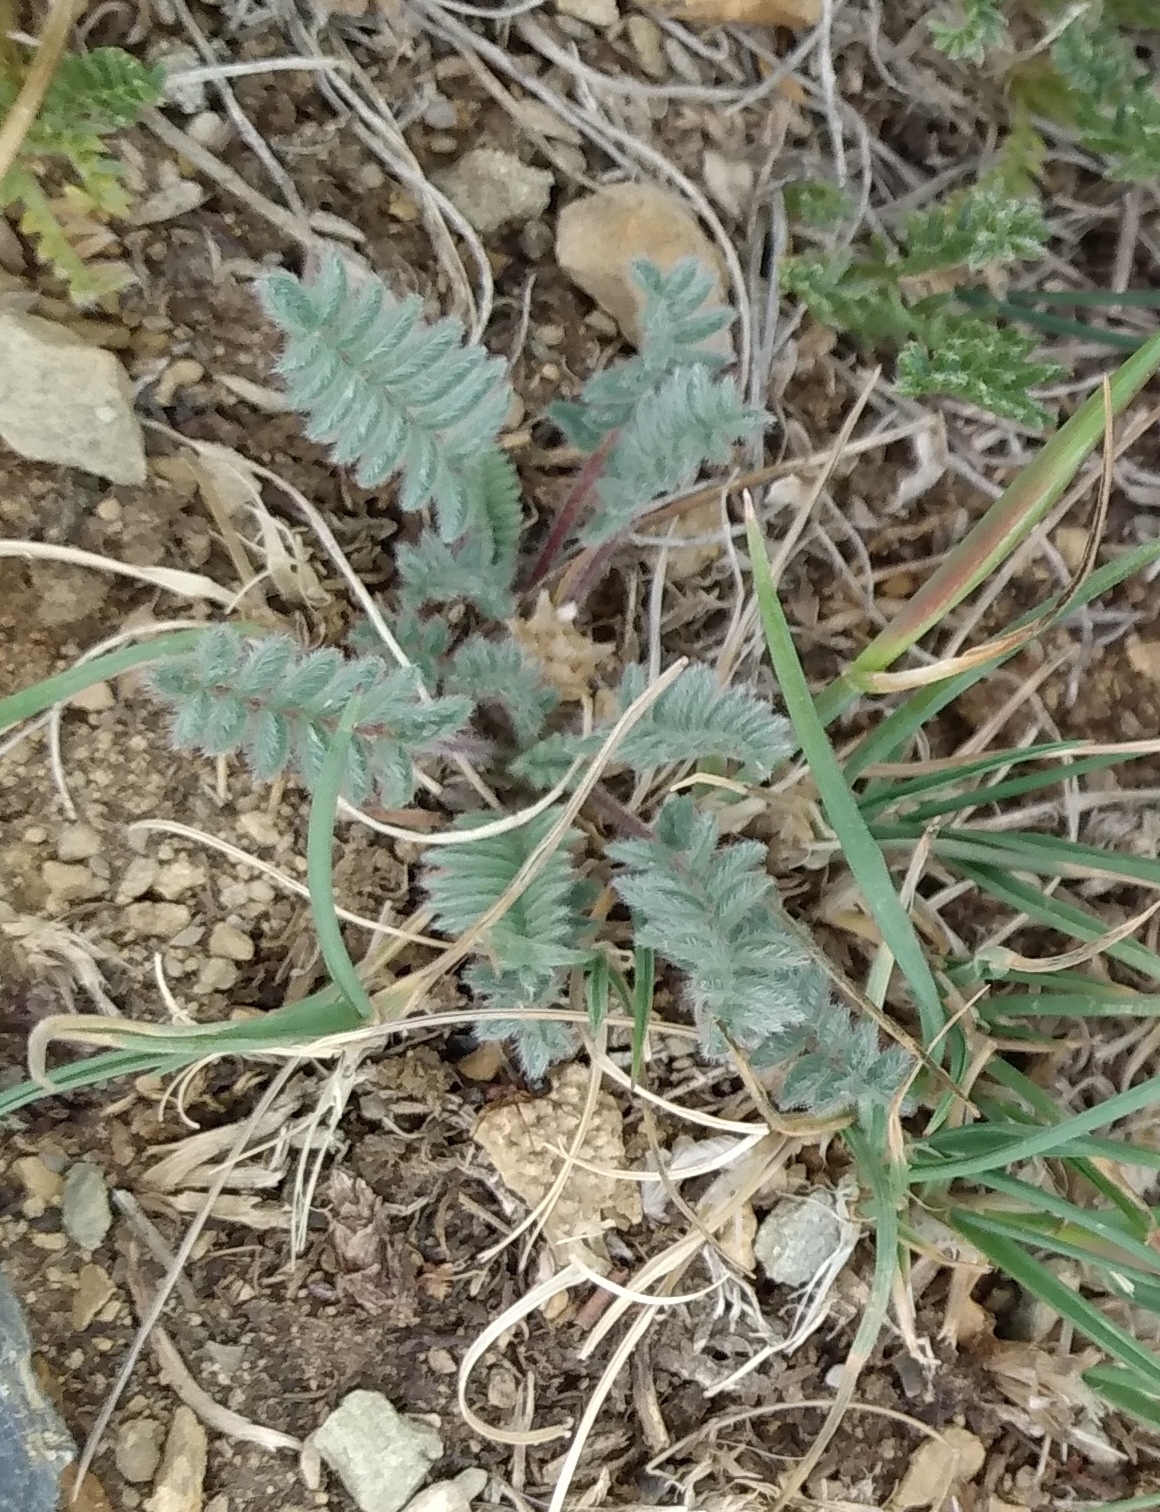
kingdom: Plantae
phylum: Tracheophyta
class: Magnoliopsida
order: Fabales
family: Fabaceae
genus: Oxytropis
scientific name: Oxytropis deflexa
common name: Stemmed oxytrope
